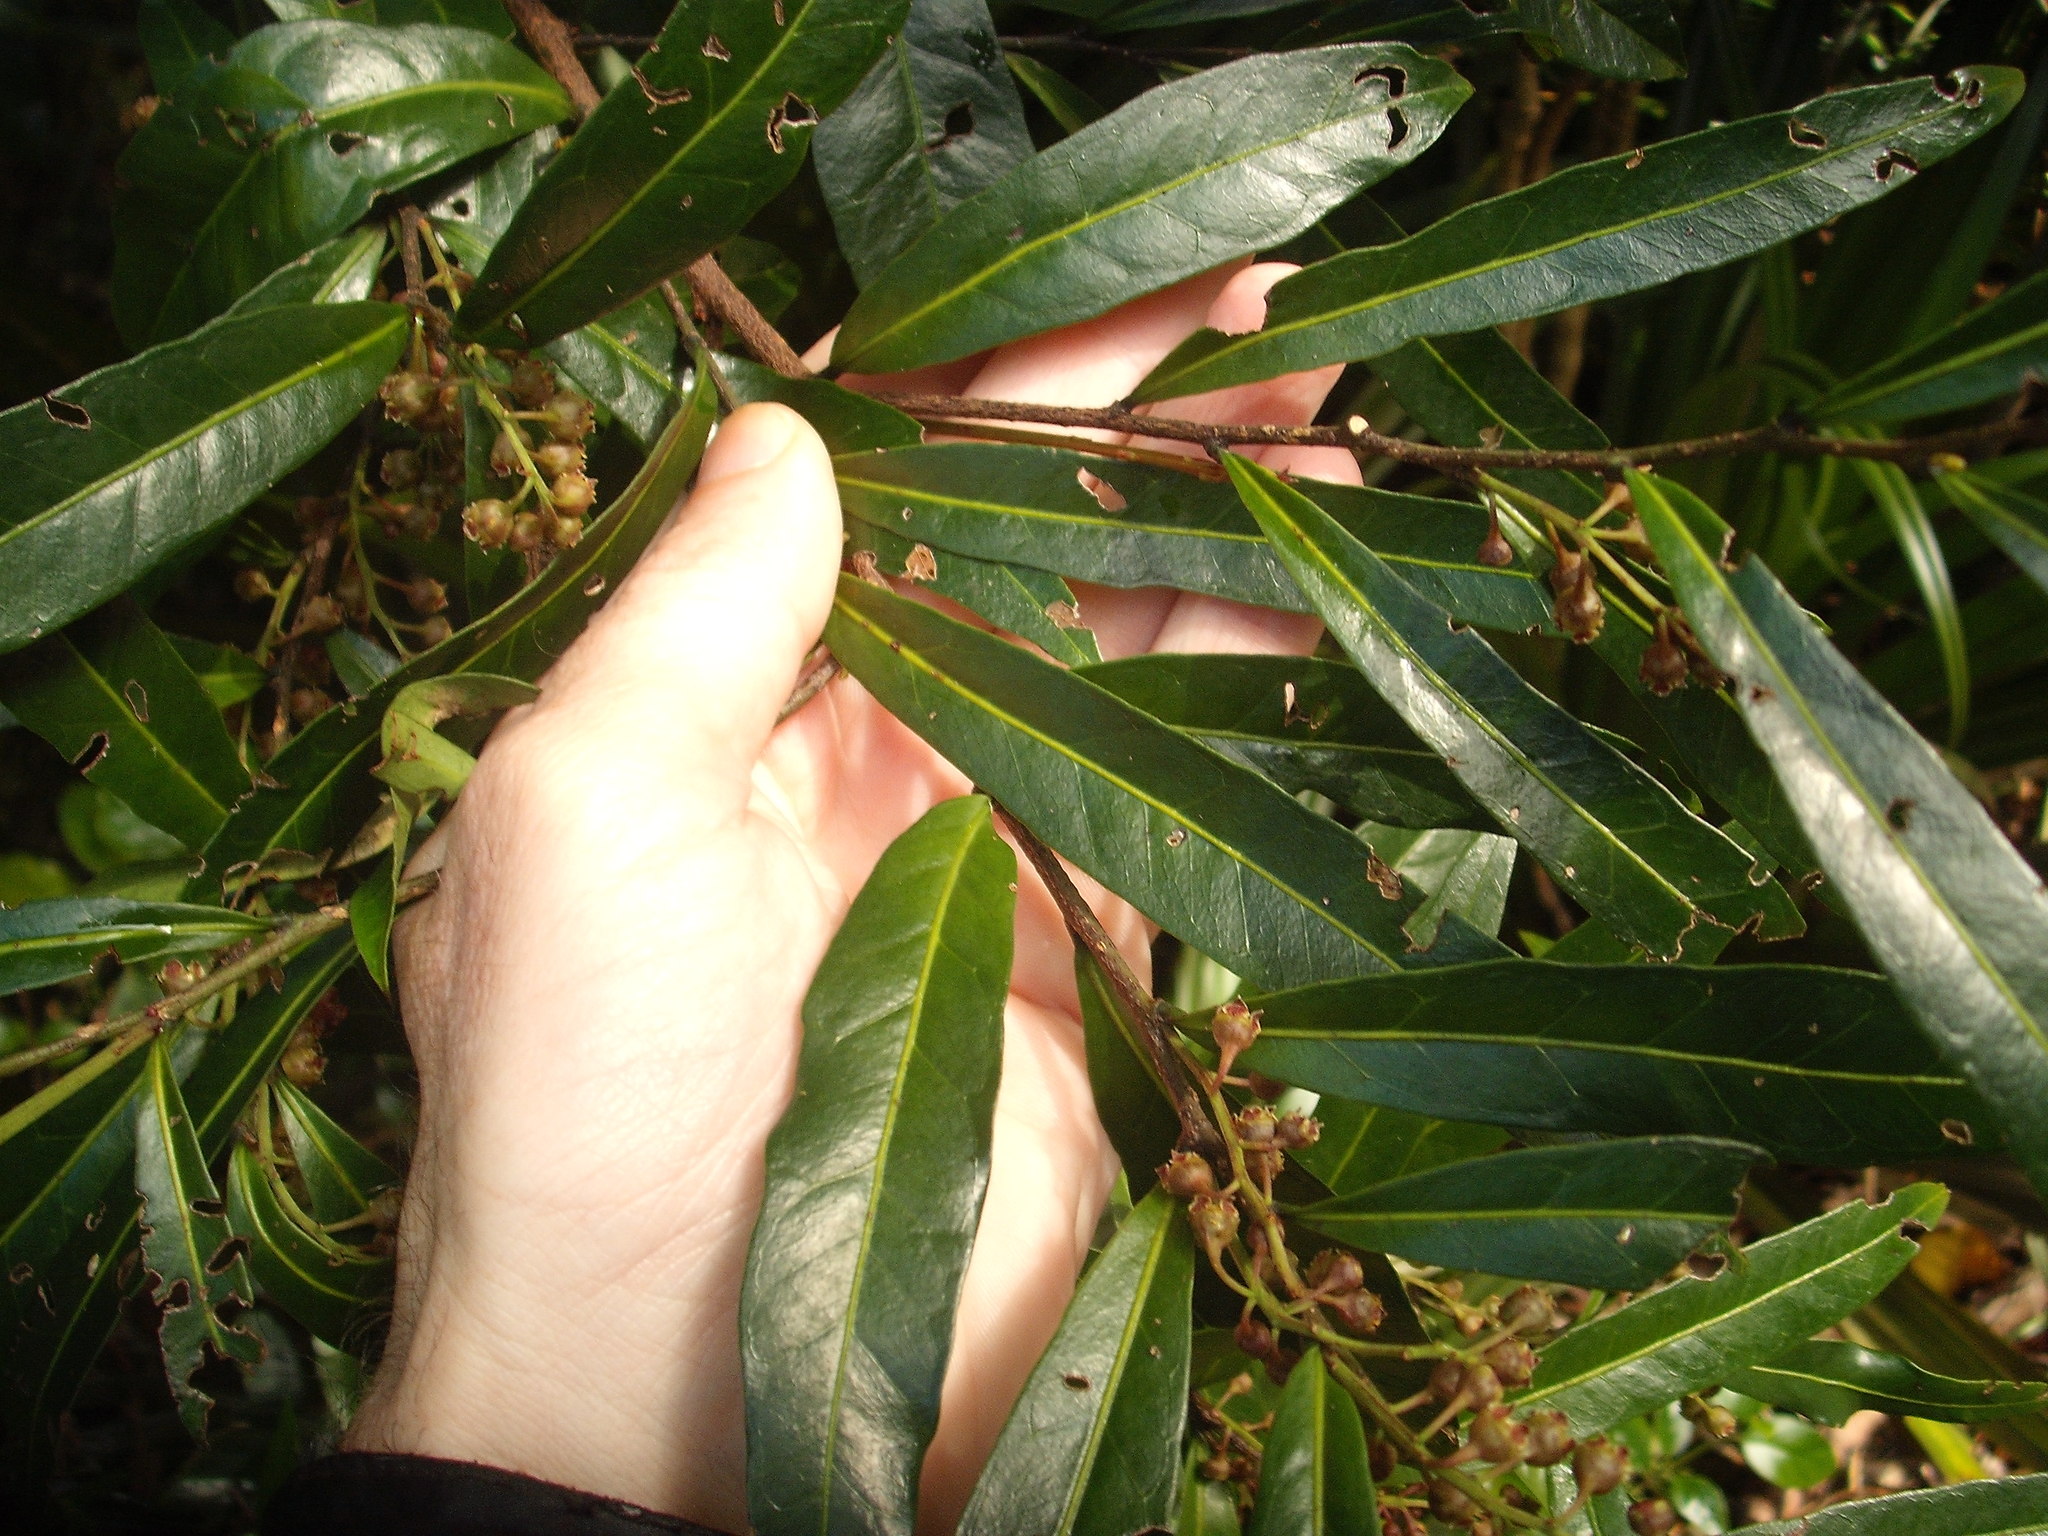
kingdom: Plantae
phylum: Tracheophyta
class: Magnoliopsida
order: Santalales
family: Nanodeaceae
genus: Mida
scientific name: Mida salicifolia
